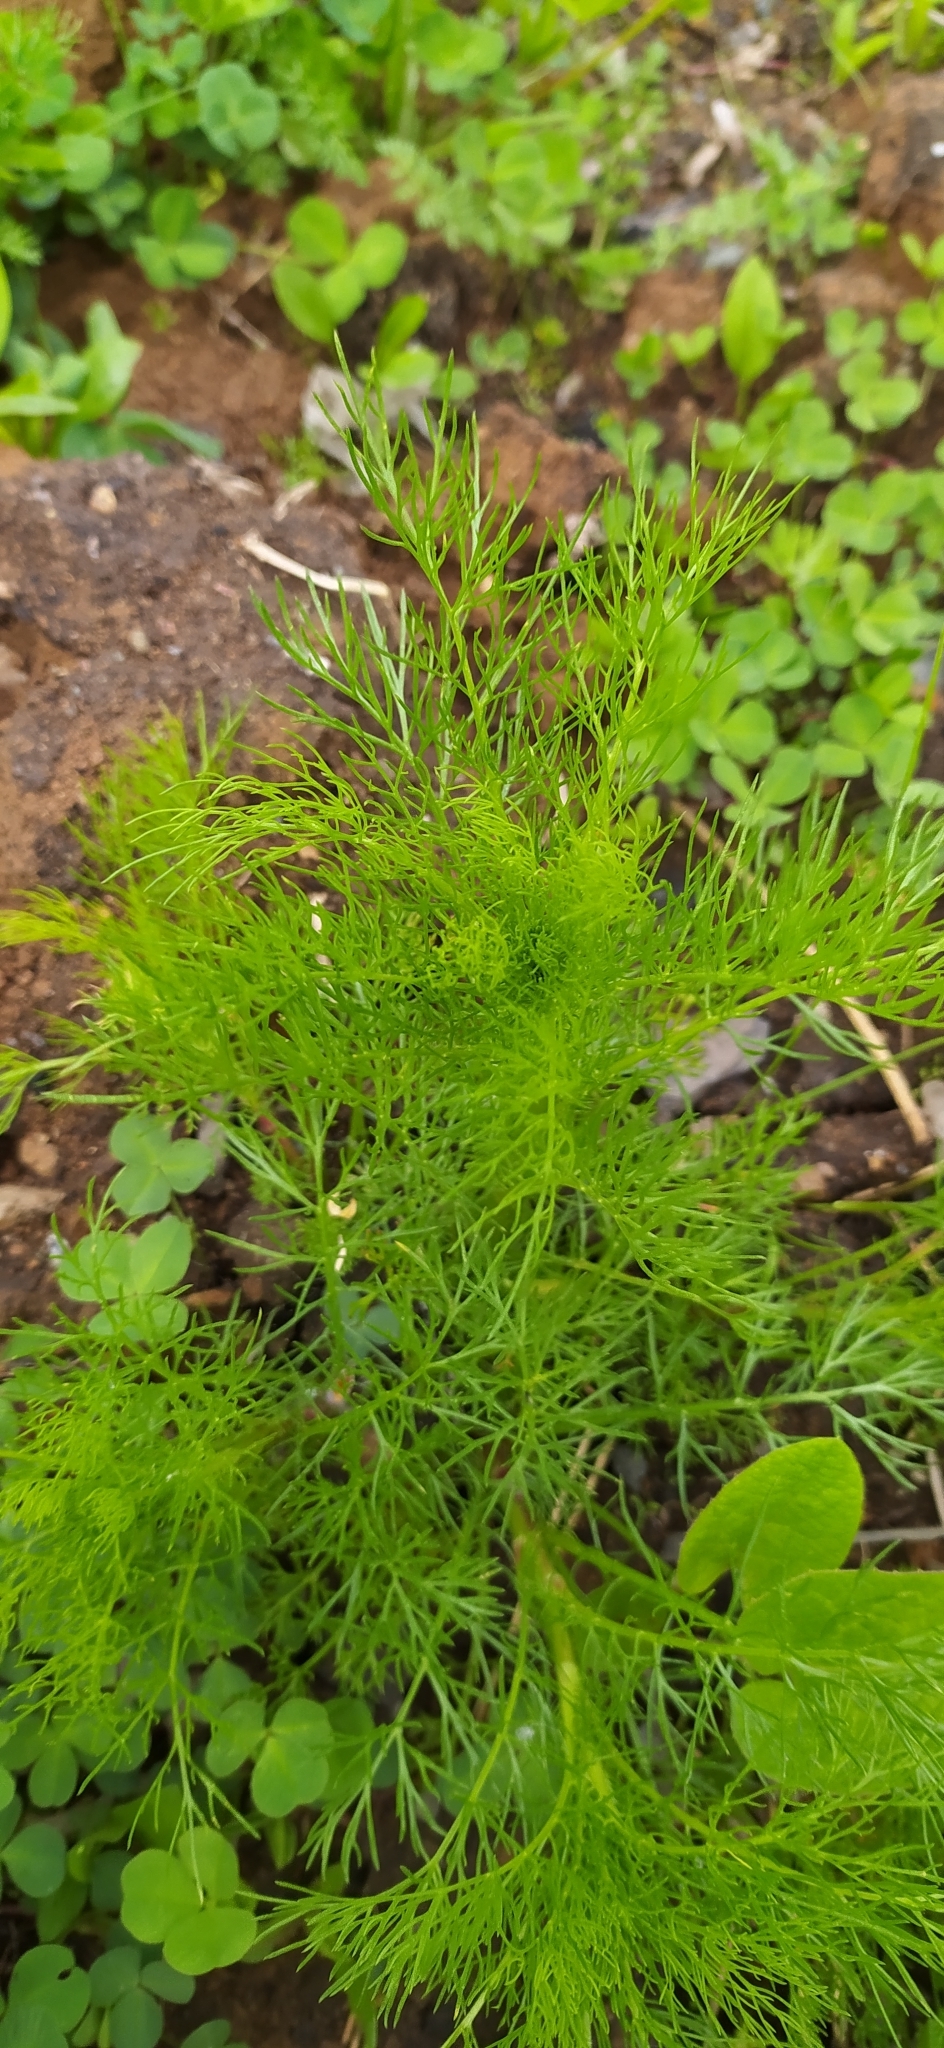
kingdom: Plantae
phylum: Tracheophyta
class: Magnoliopsida
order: Asterales
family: Asteraceae
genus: Tripleurospermum
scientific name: Tripleurospermum inodorum
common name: Scentless mayweed
